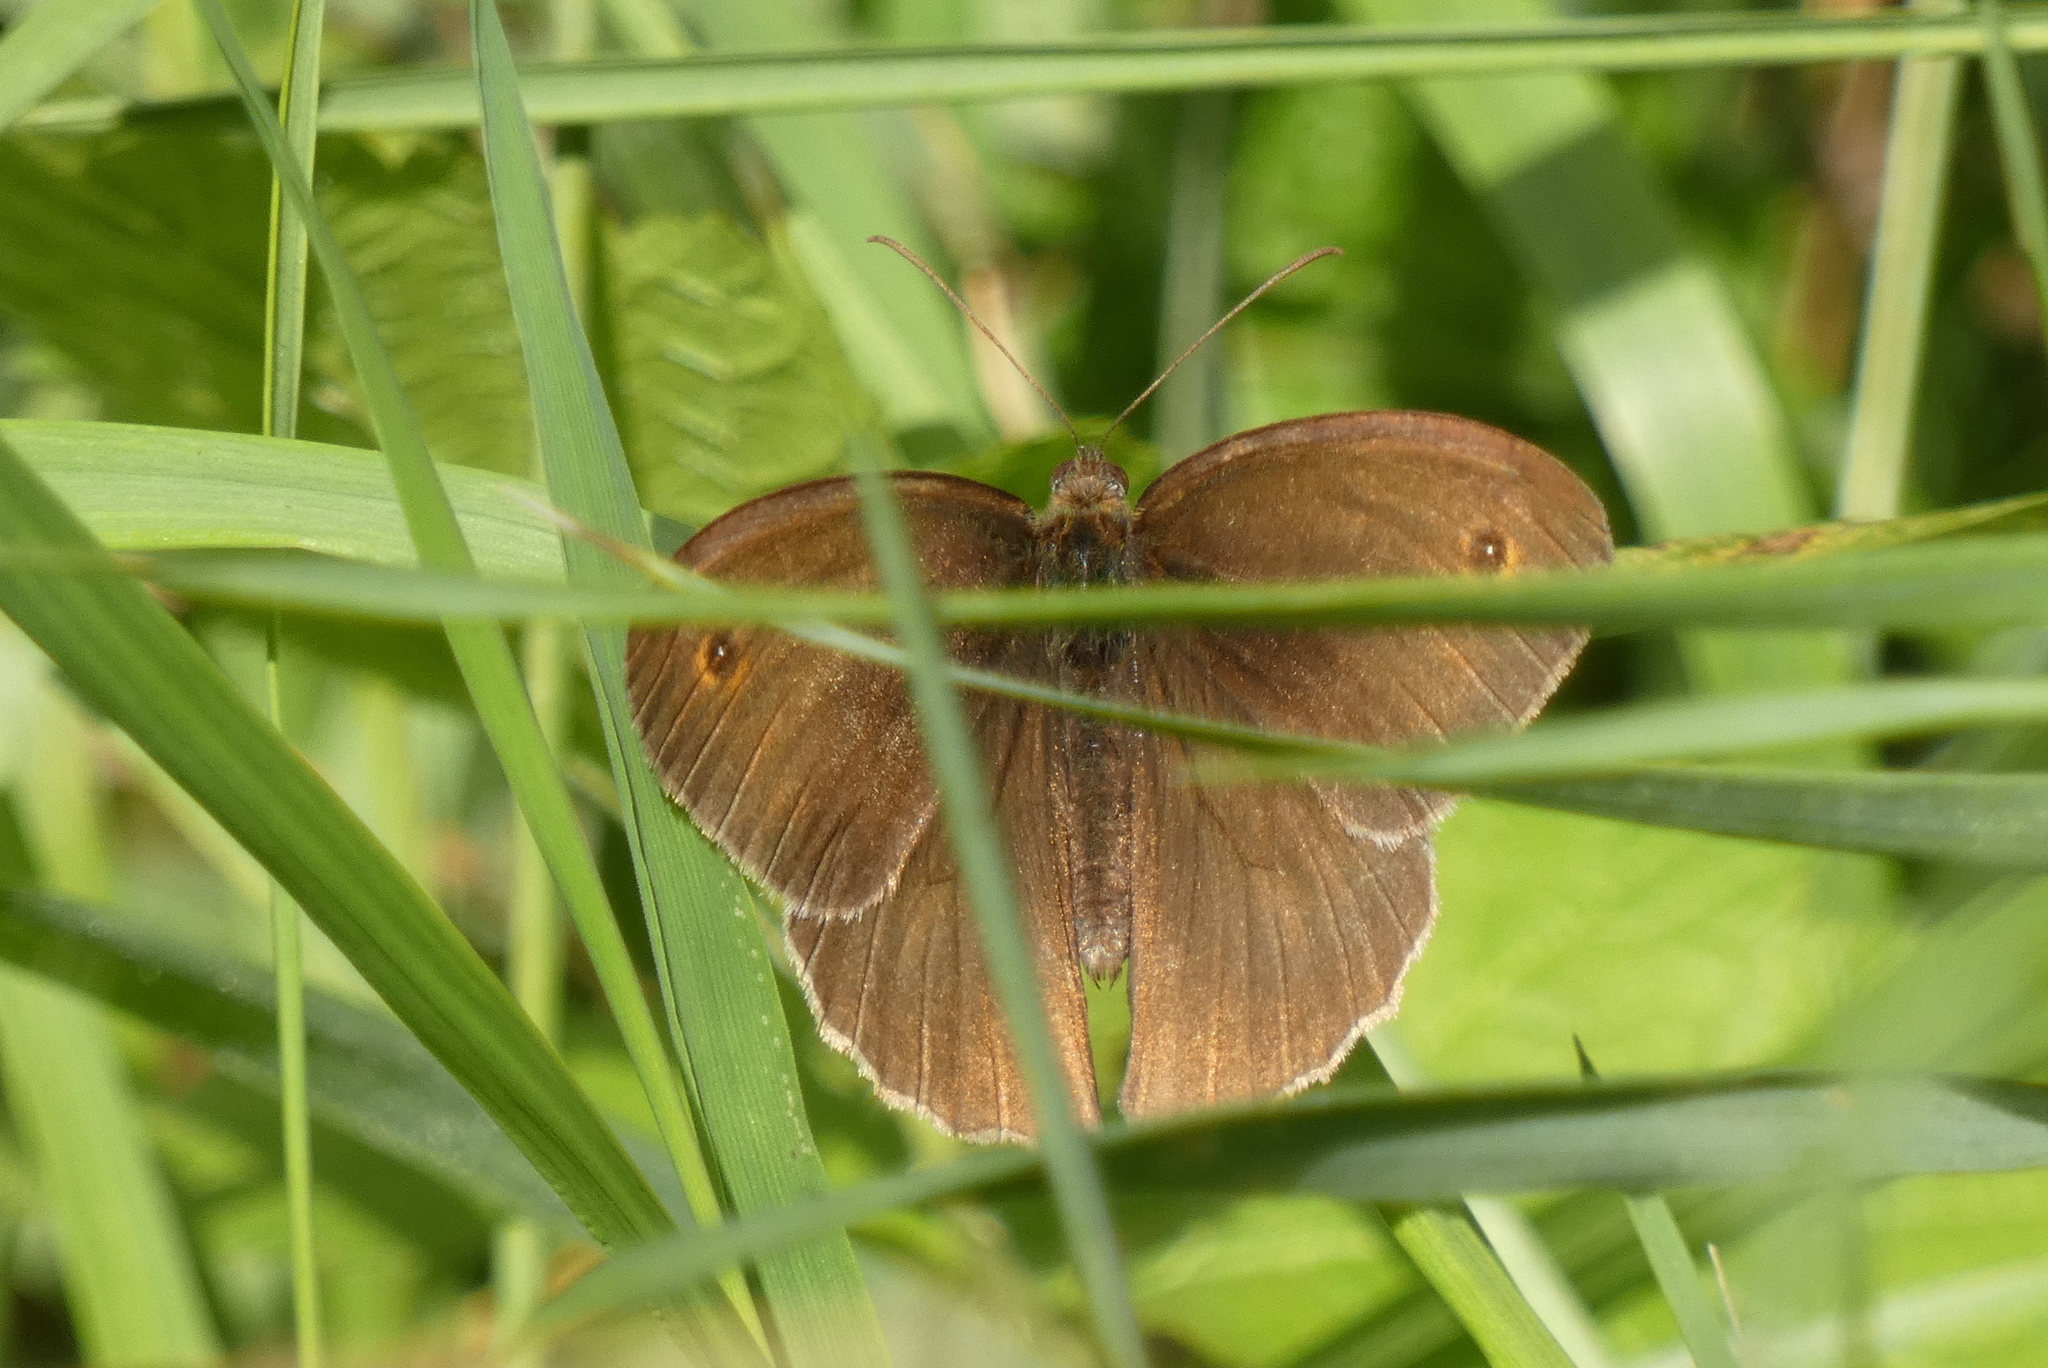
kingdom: Animalia
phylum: Arthropoda
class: Insecta
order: Lepidoptera
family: Nymphalidae
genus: Aphantopus
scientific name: Aphantopus hyperantus
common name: Ringlet
